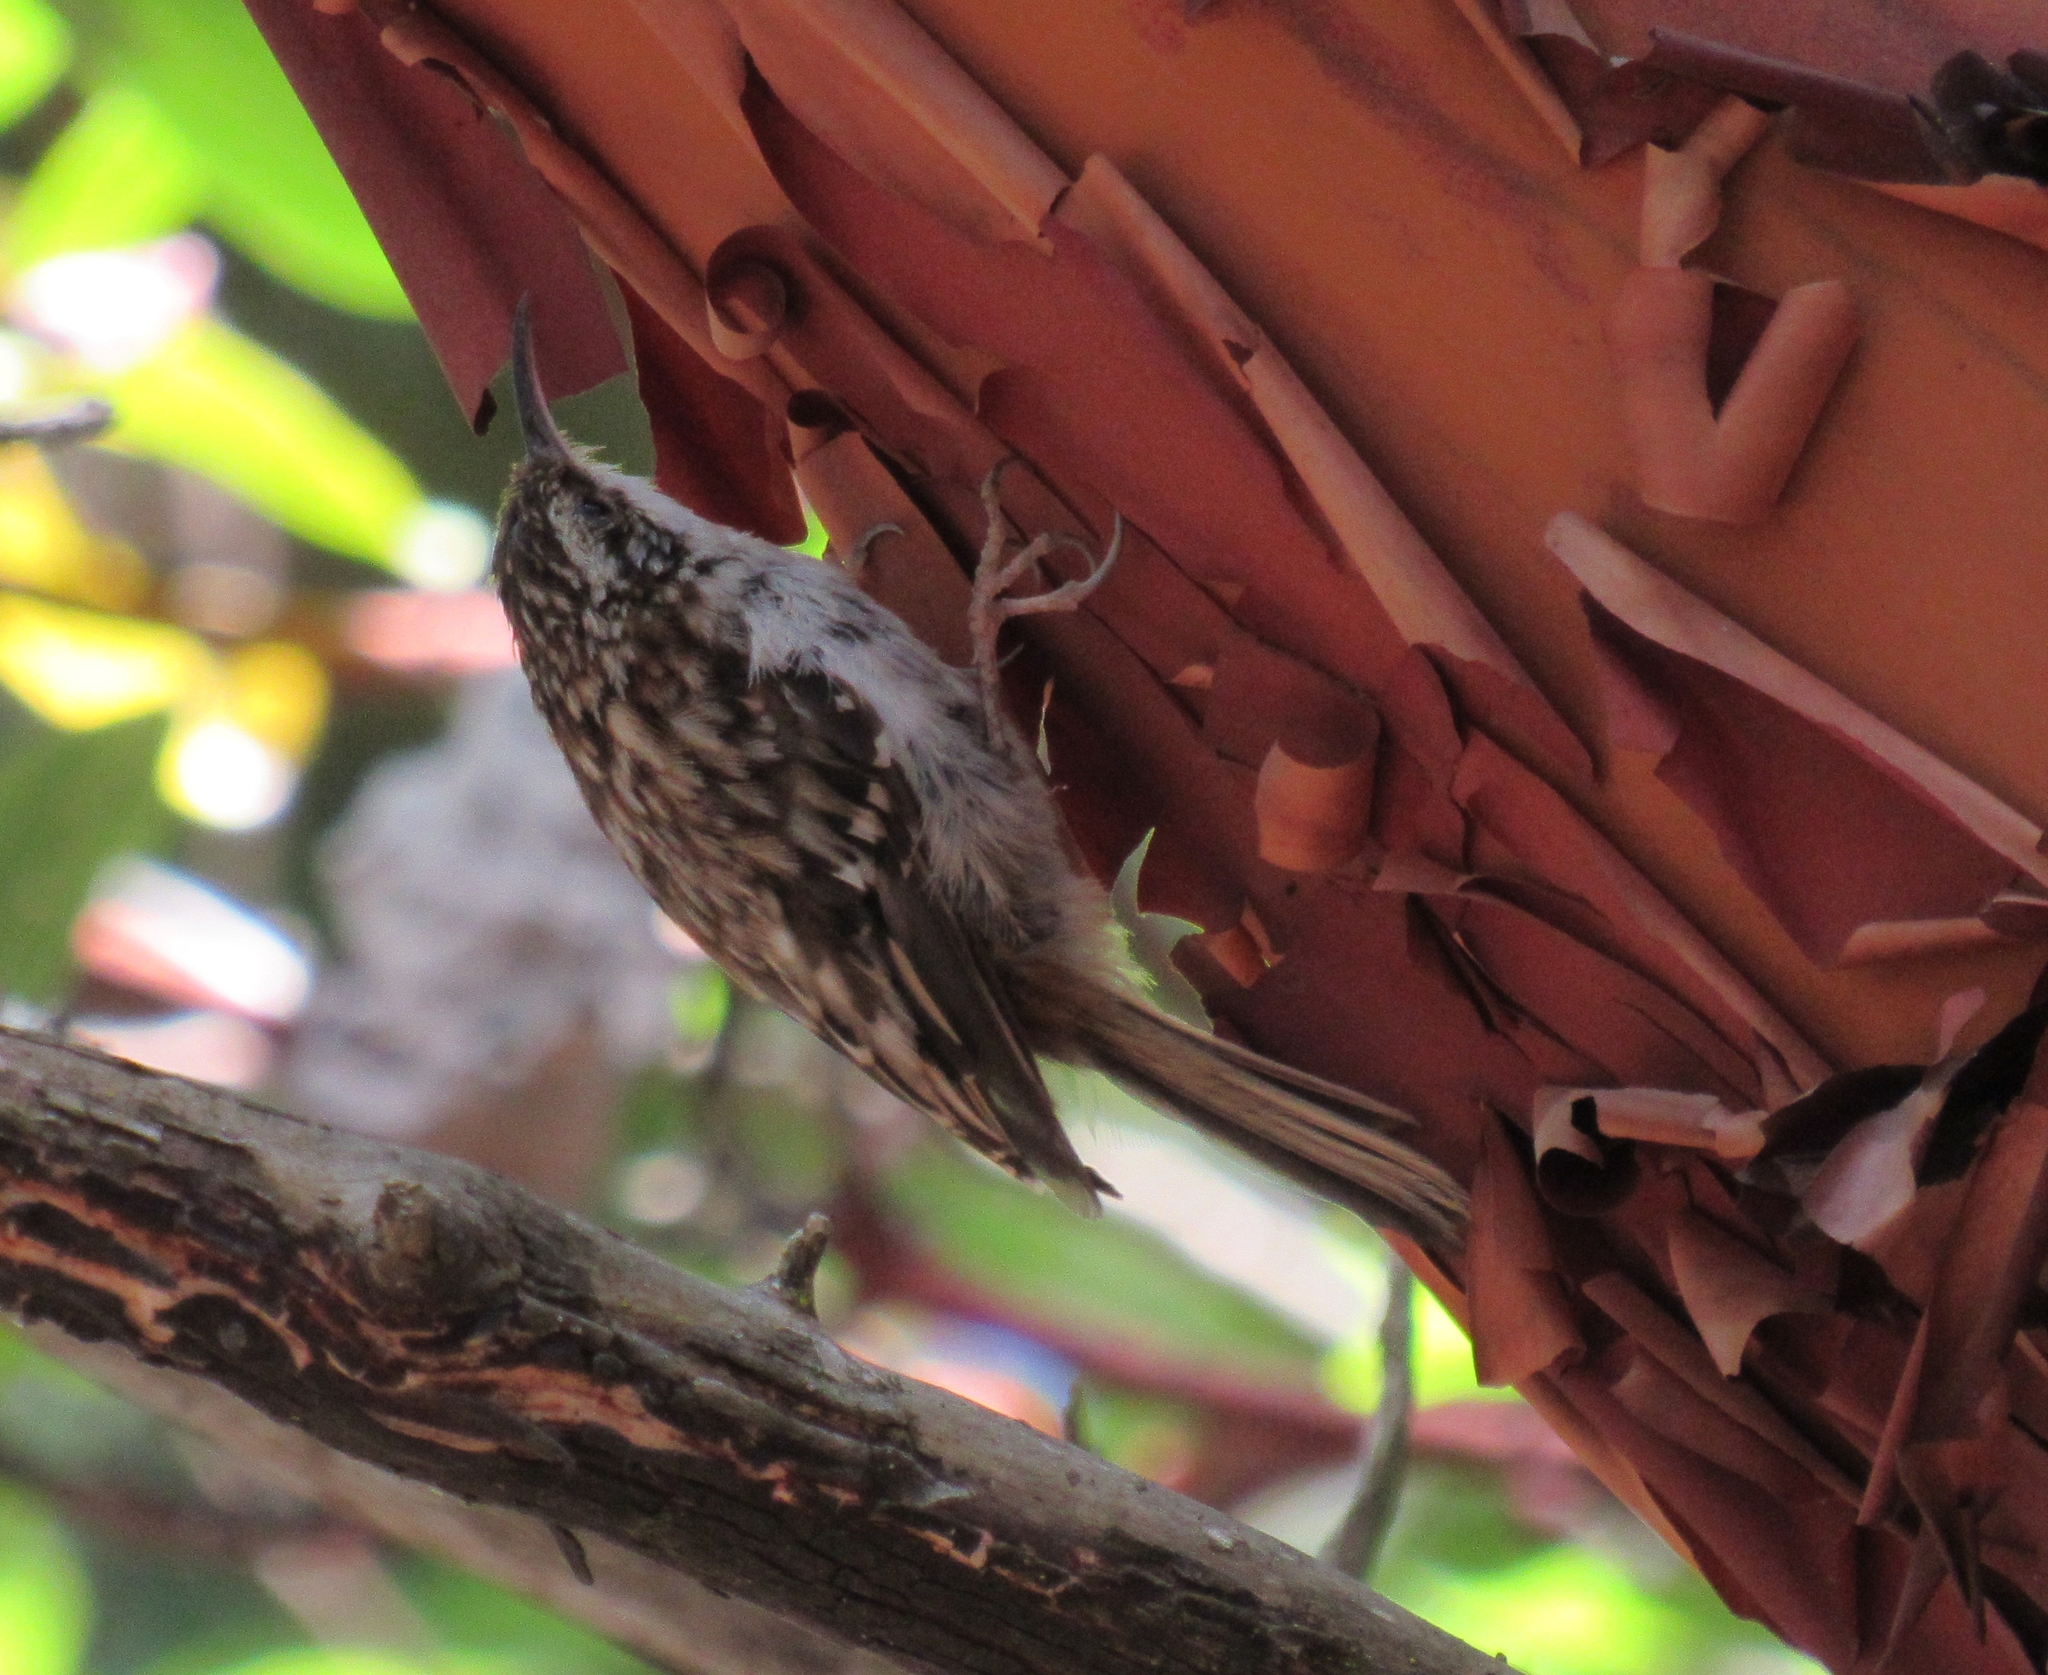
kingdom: Animalia
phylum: Chordata
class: Aves
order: Passeriformes
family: Certhiidae
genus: Certhia
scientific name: Certhia americana
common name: Brown creeper
